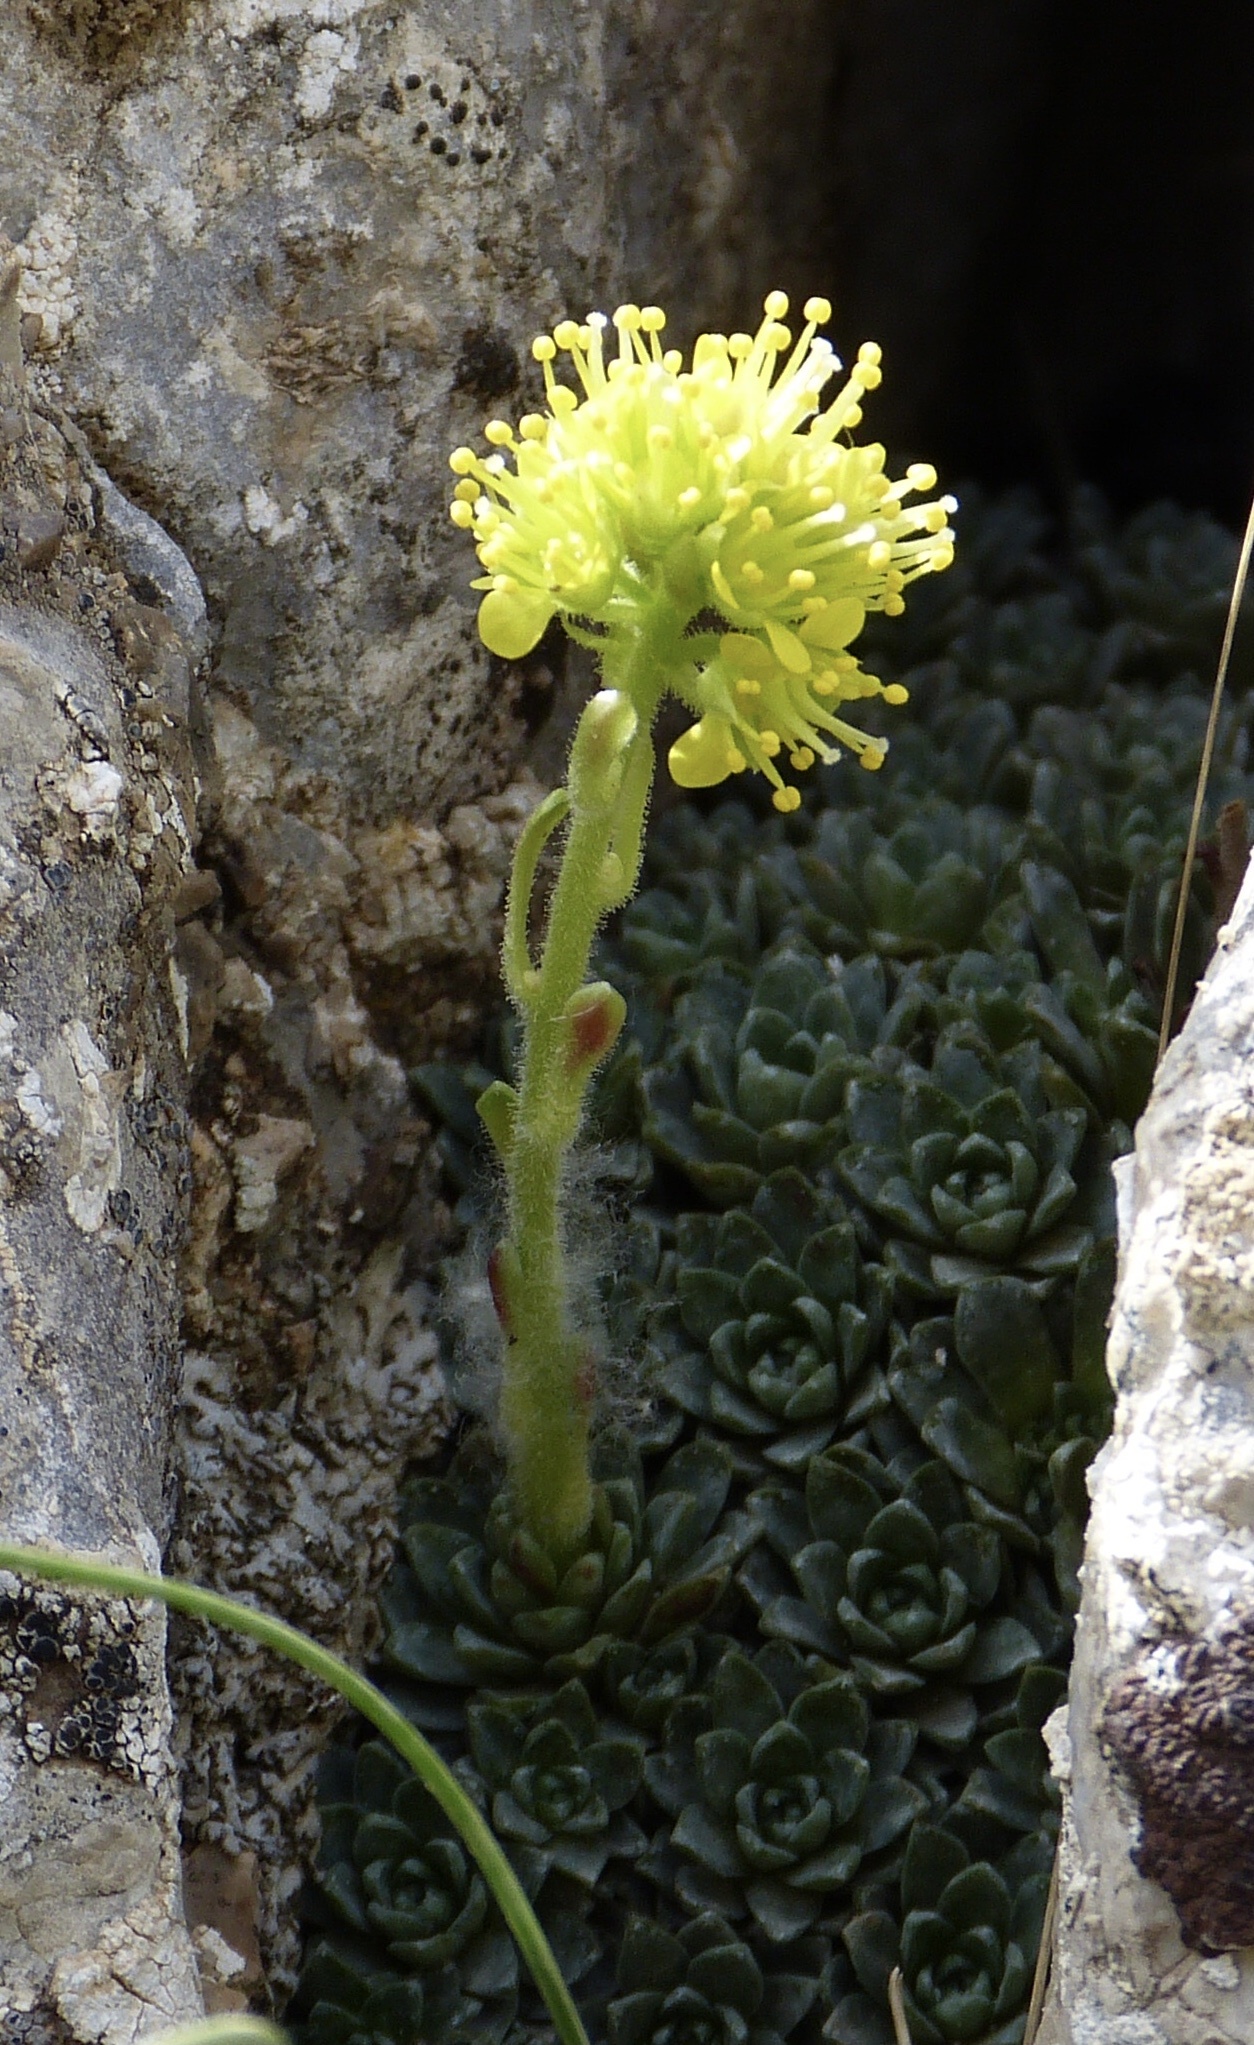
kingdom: Plantae
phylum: Tracheophyta
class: Magnoliopsida
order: Saxifragales
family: Saxifragaceae
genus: Saxifraga
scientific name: Saxifraga kotschyi
